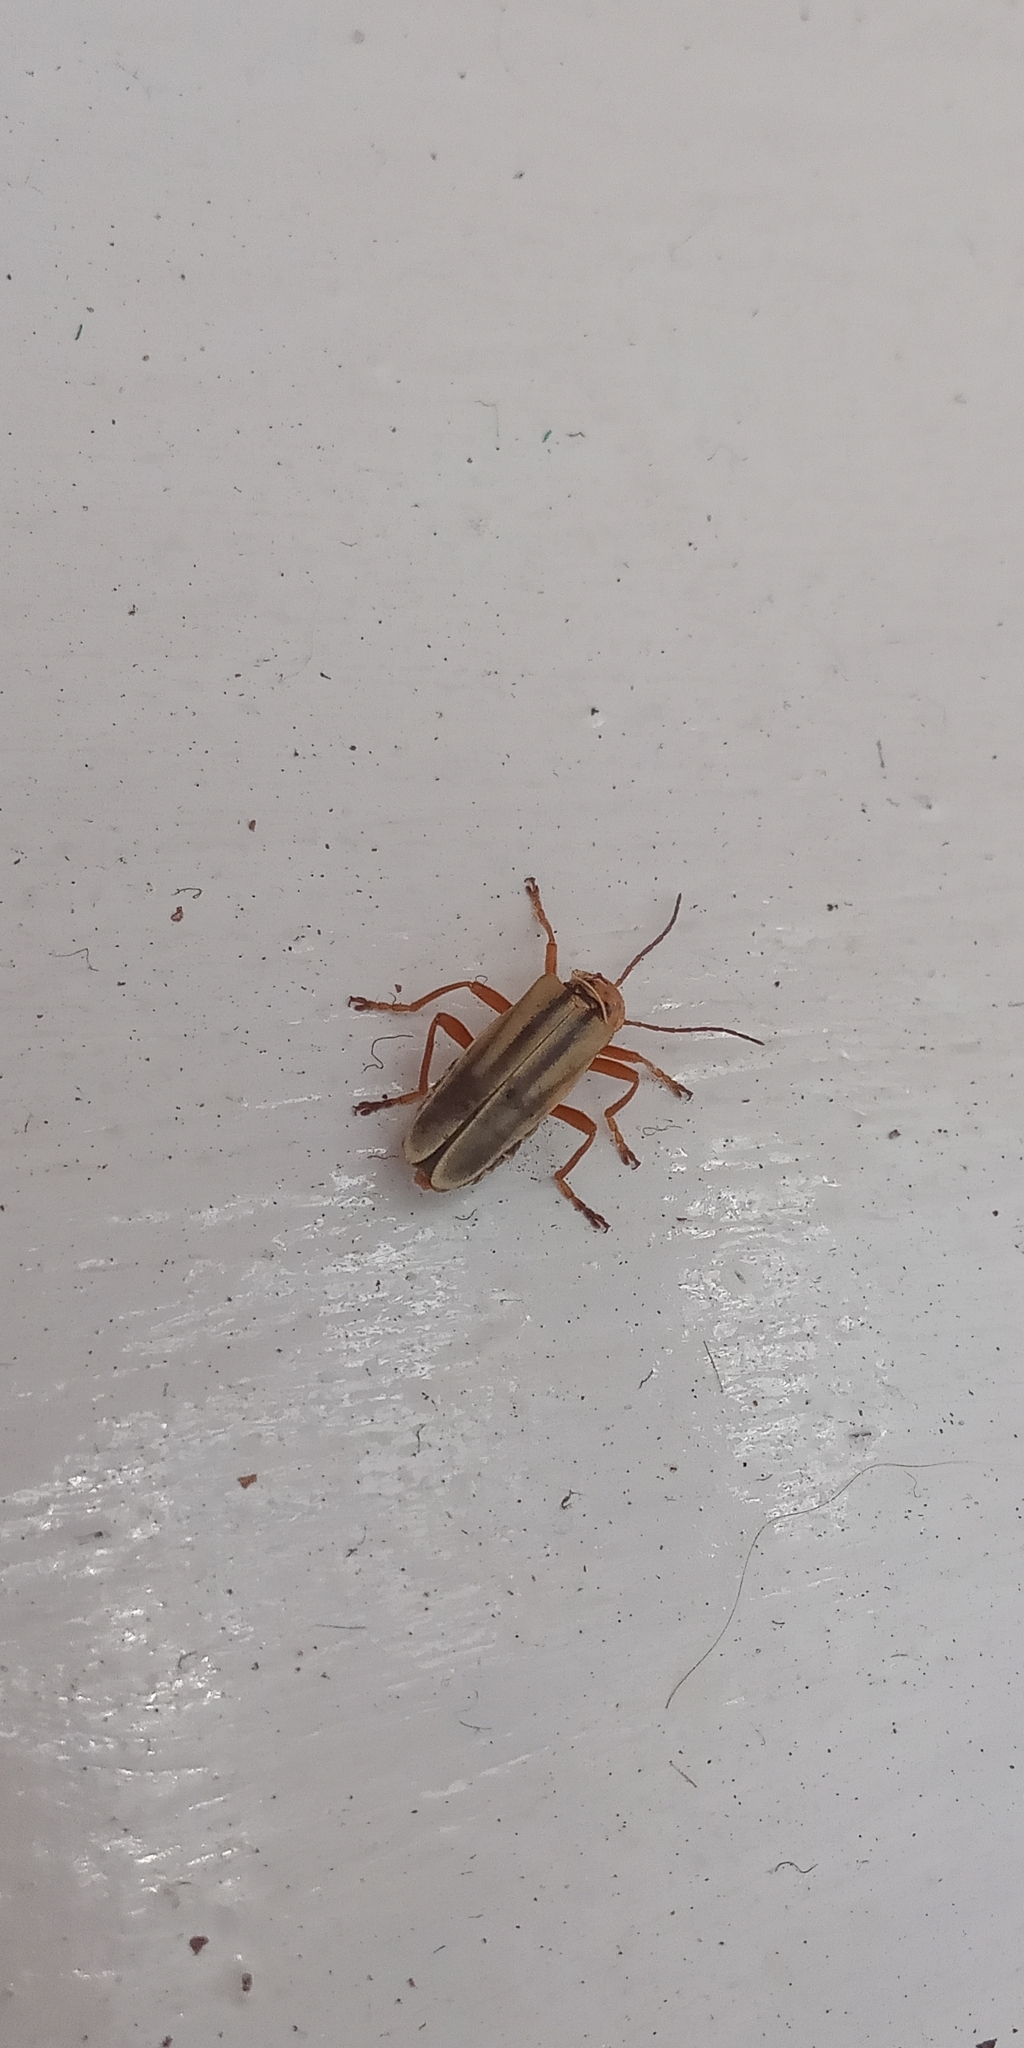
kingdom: Animalia
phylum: Arthropoda
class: Insecta
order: Coleoptera
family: Cantharidae
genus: Chauliognathus
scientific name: Chauliognathus
